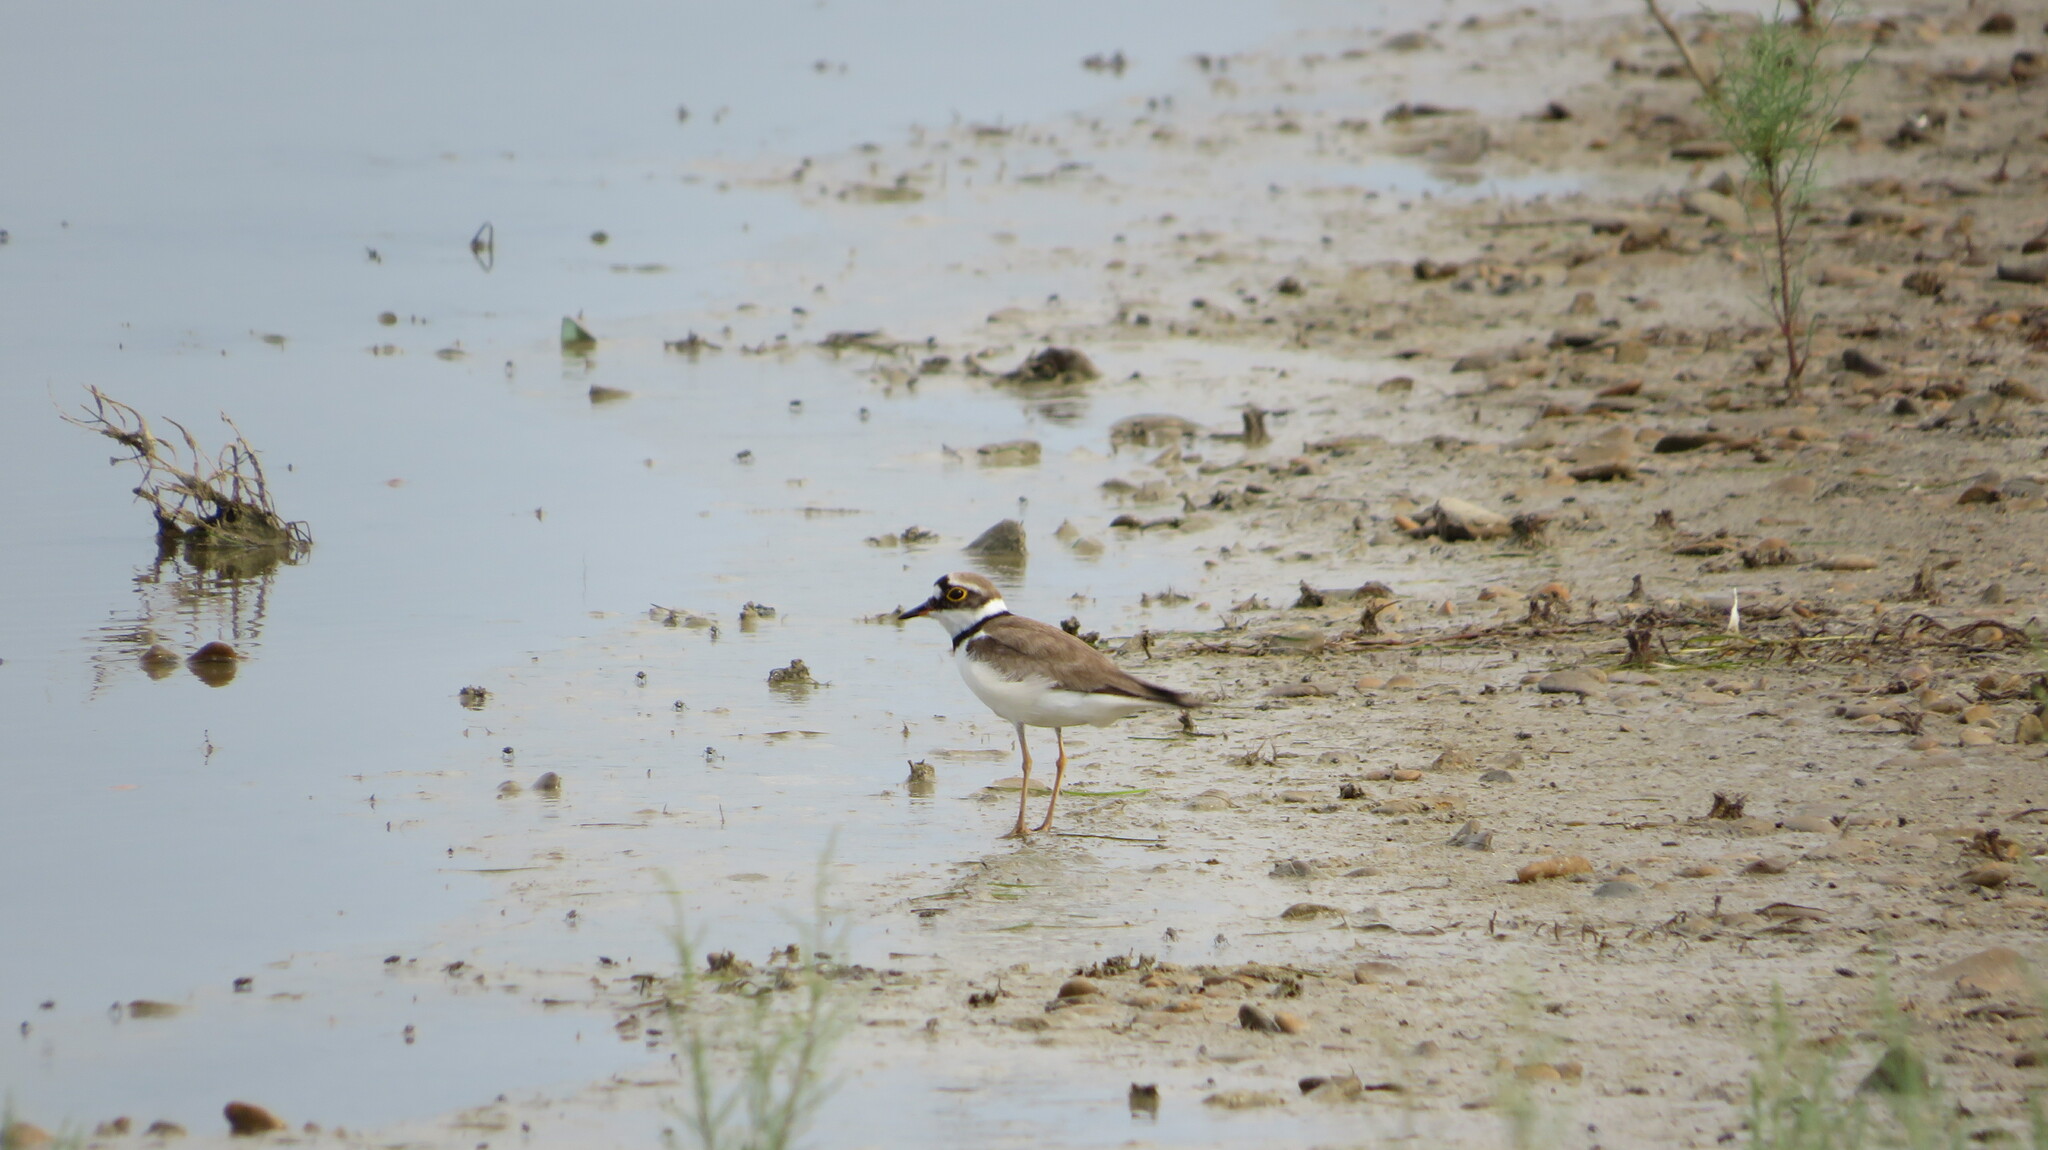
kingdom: Animalia
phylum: Chordata
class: Aves
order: Charadriiformes
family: Charadriidae
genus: Charadrius
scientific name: Charadrius dubius
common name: Little ringed plover
